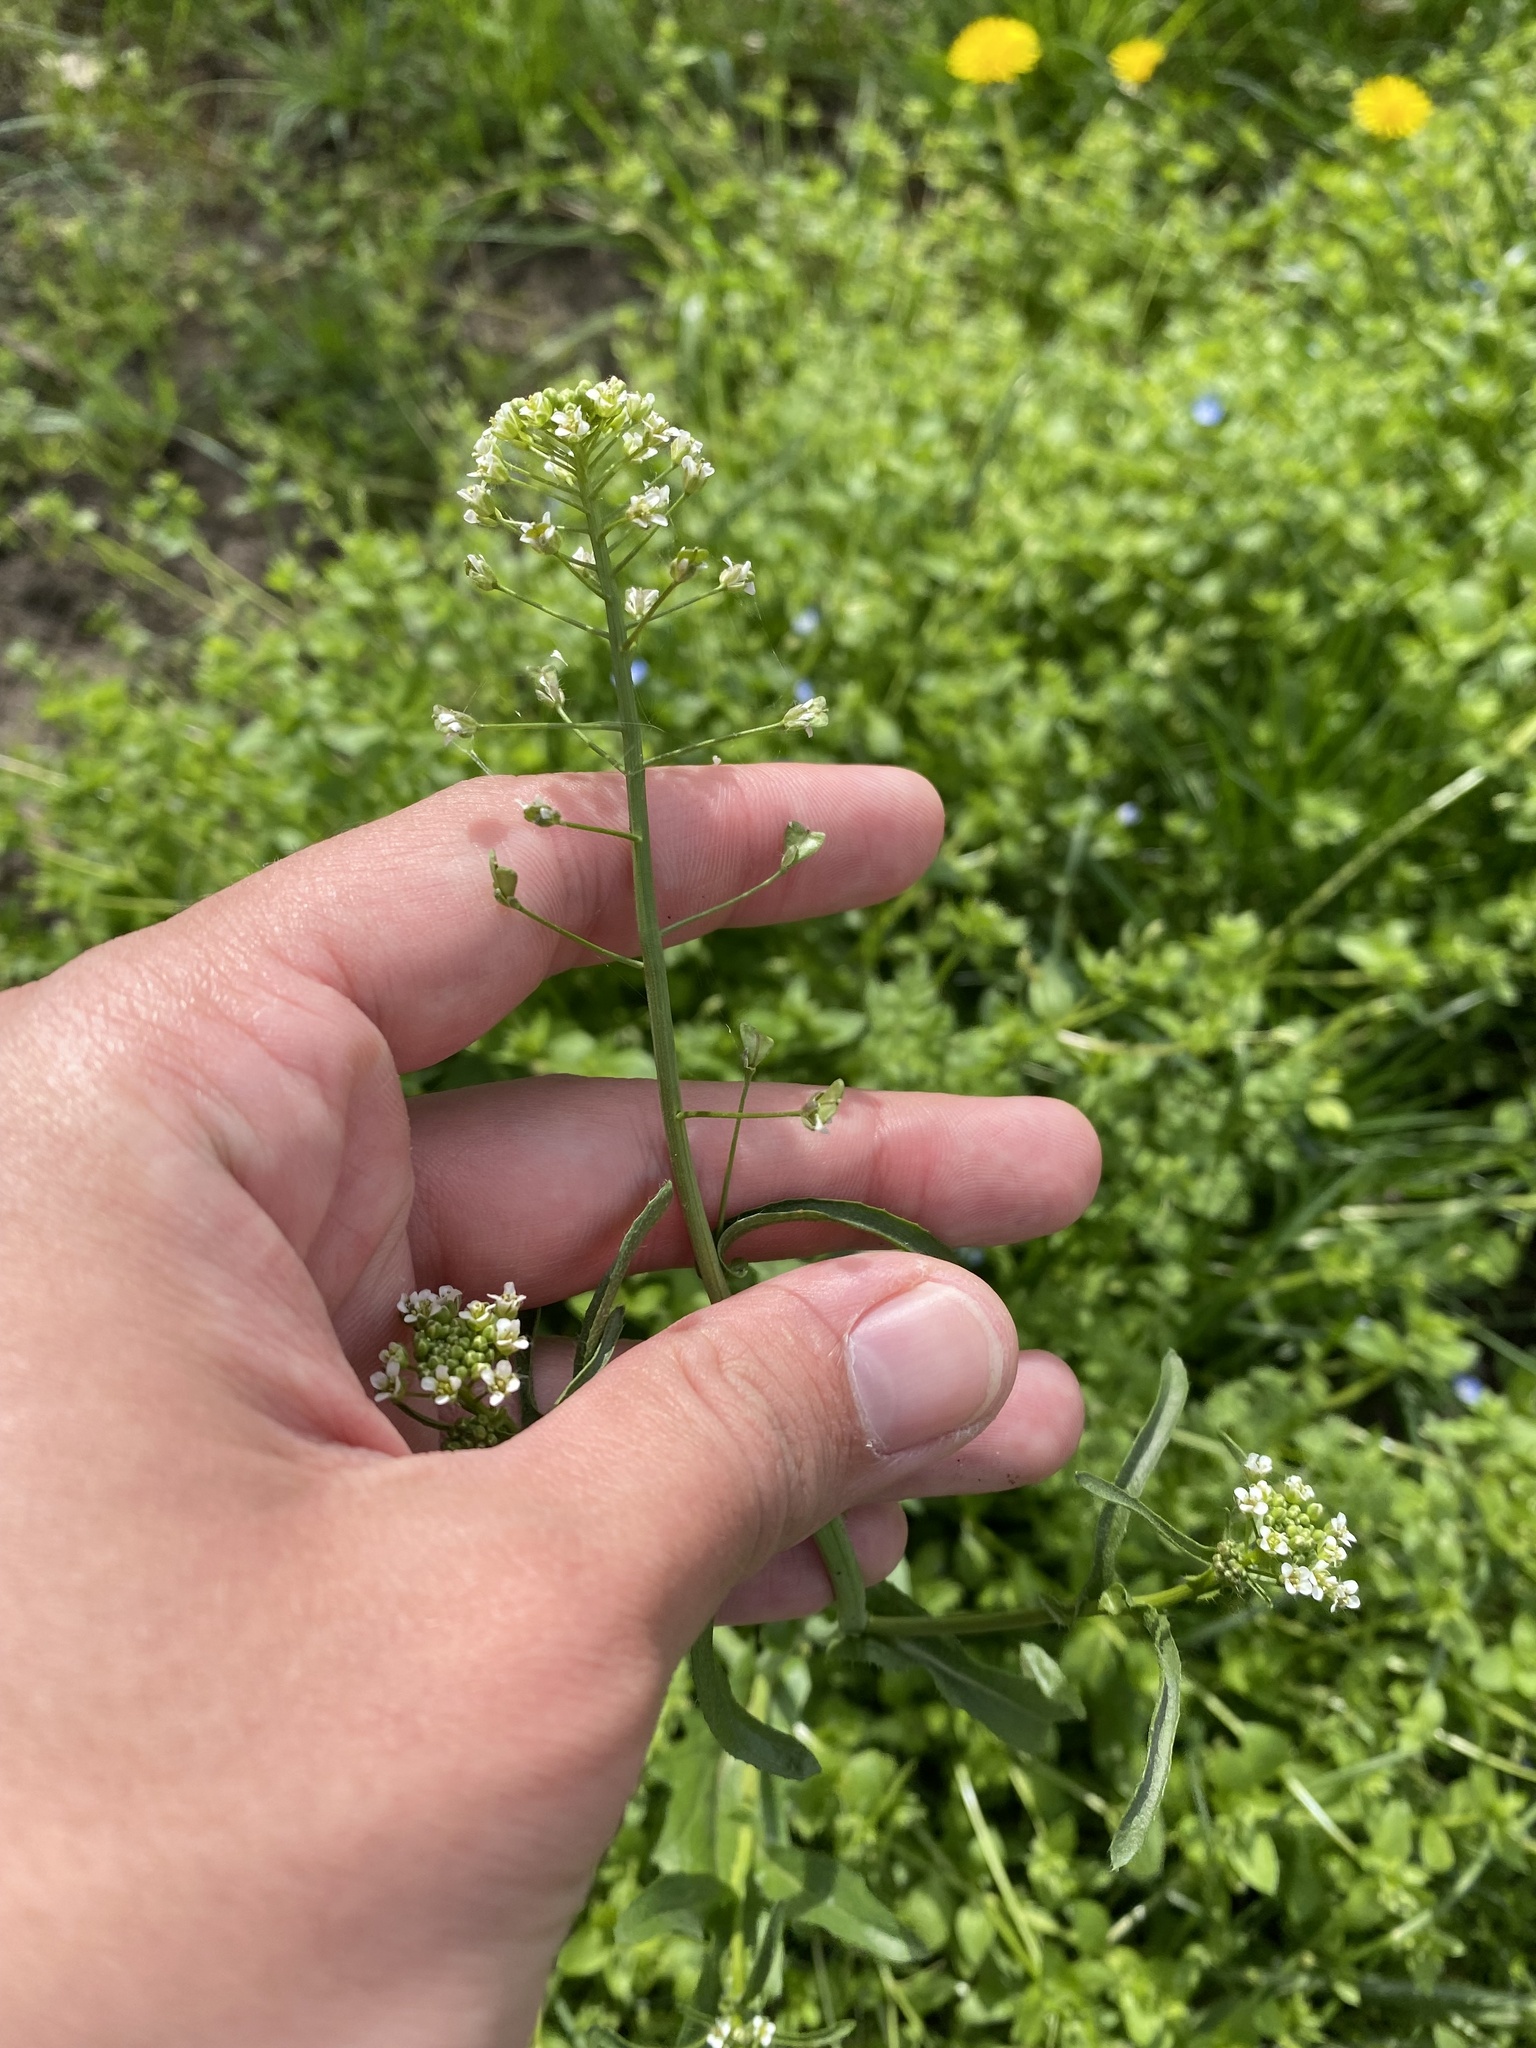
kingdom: Plantae
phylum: Tracheophyta
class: Magnoliopsida
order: Brassicales
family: Brassicaceae
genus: Capsella
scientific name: Capsella bursa-pastoris
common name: Shepherd's purse
